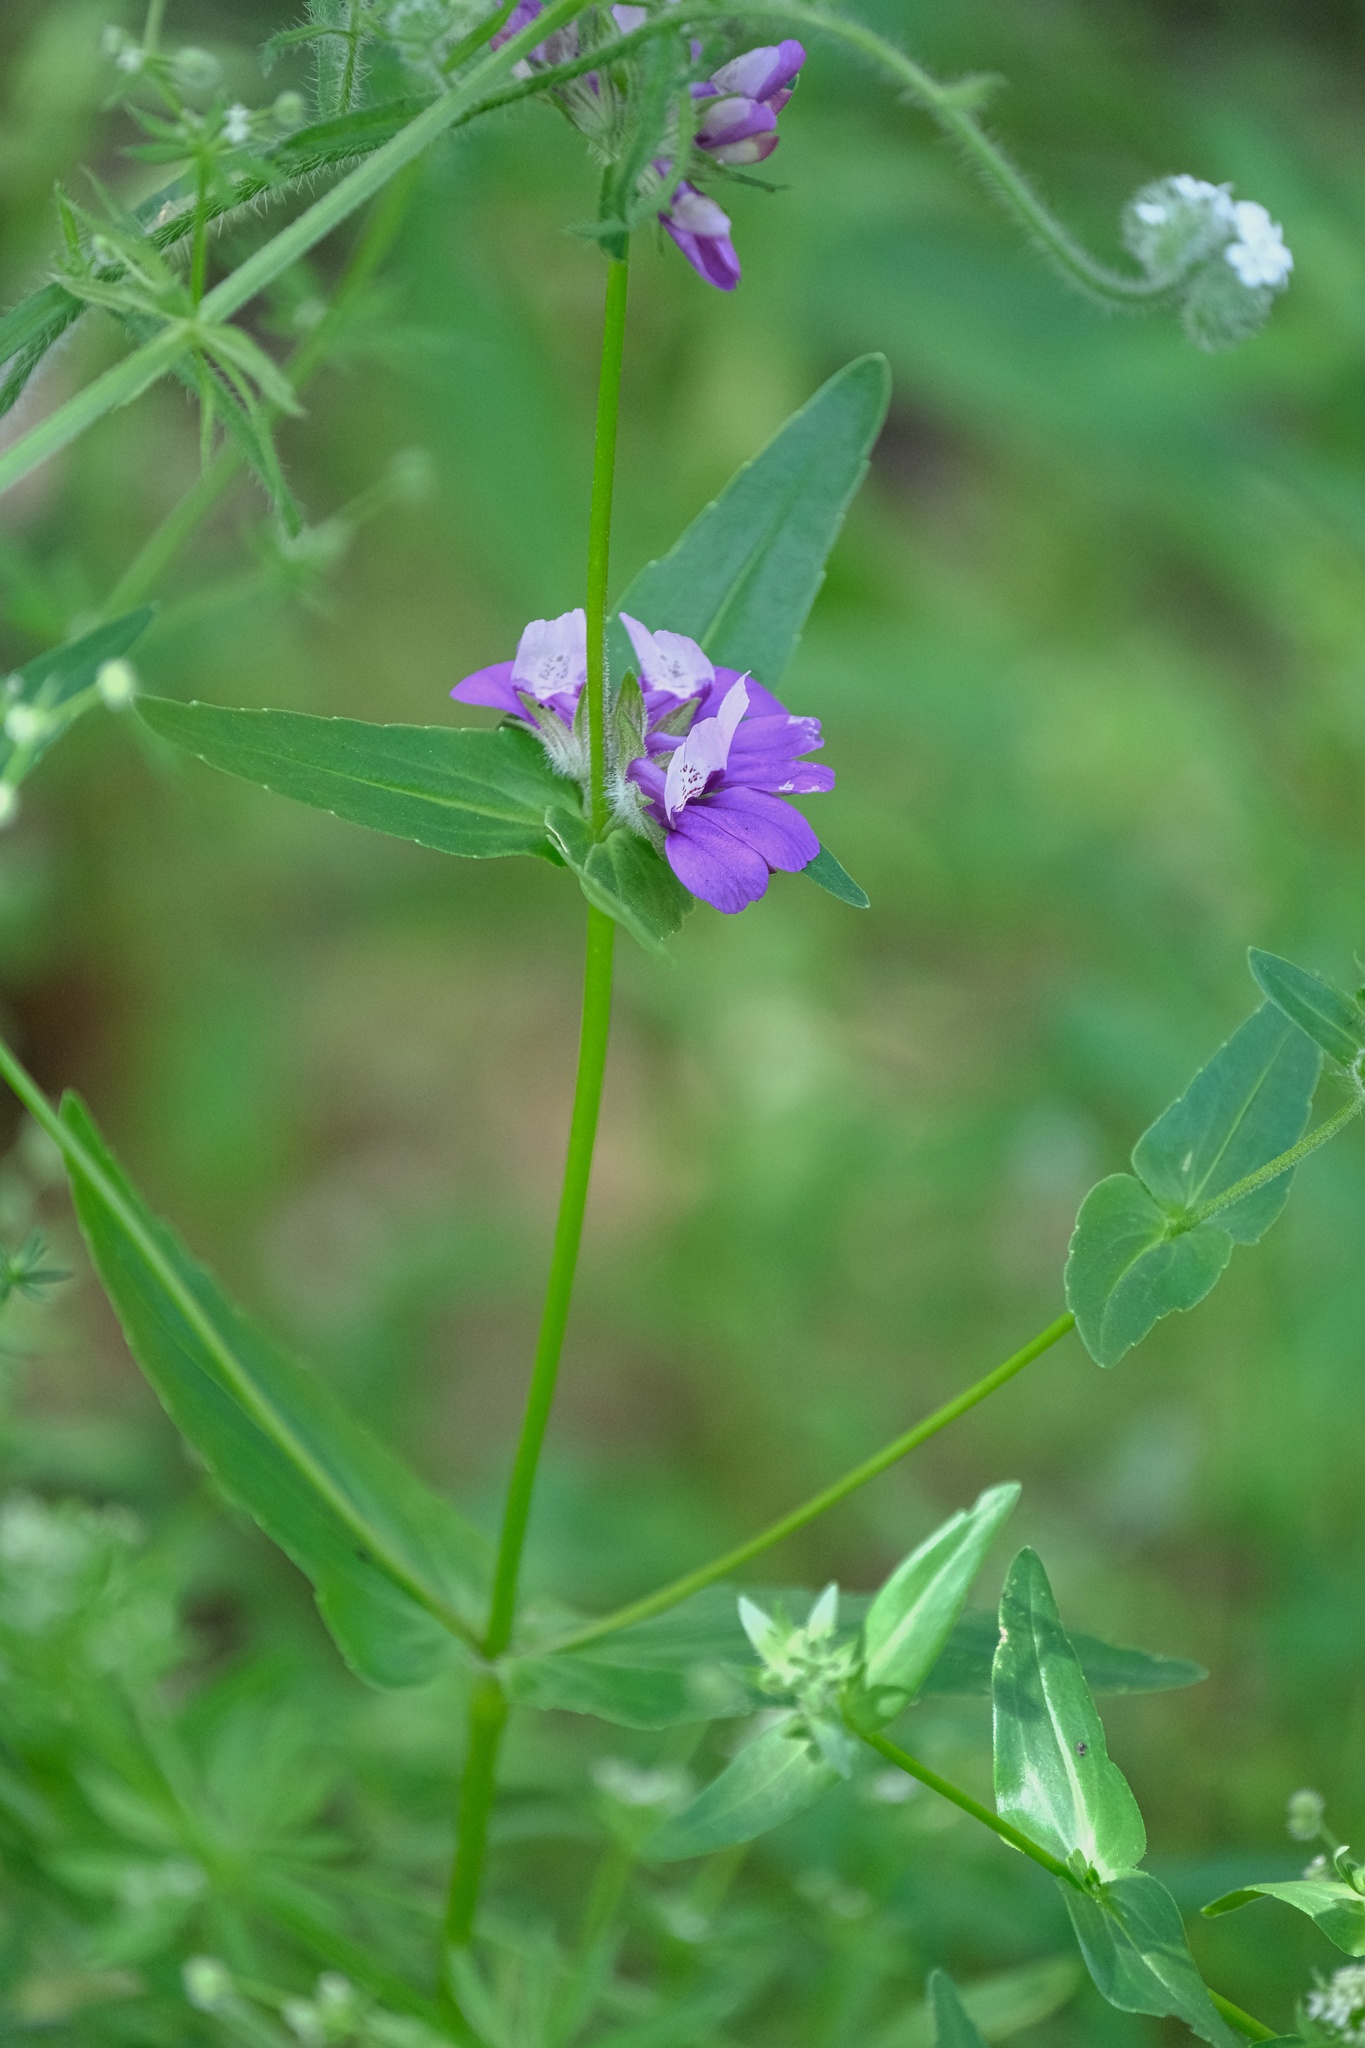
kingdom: Plantae
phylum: Tracheophyta
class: Magnoliopsida
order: Lamiales
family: Plantaginaceae
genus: Collinsia
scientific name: Collinsia heterophylla
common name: Chinese-houses
